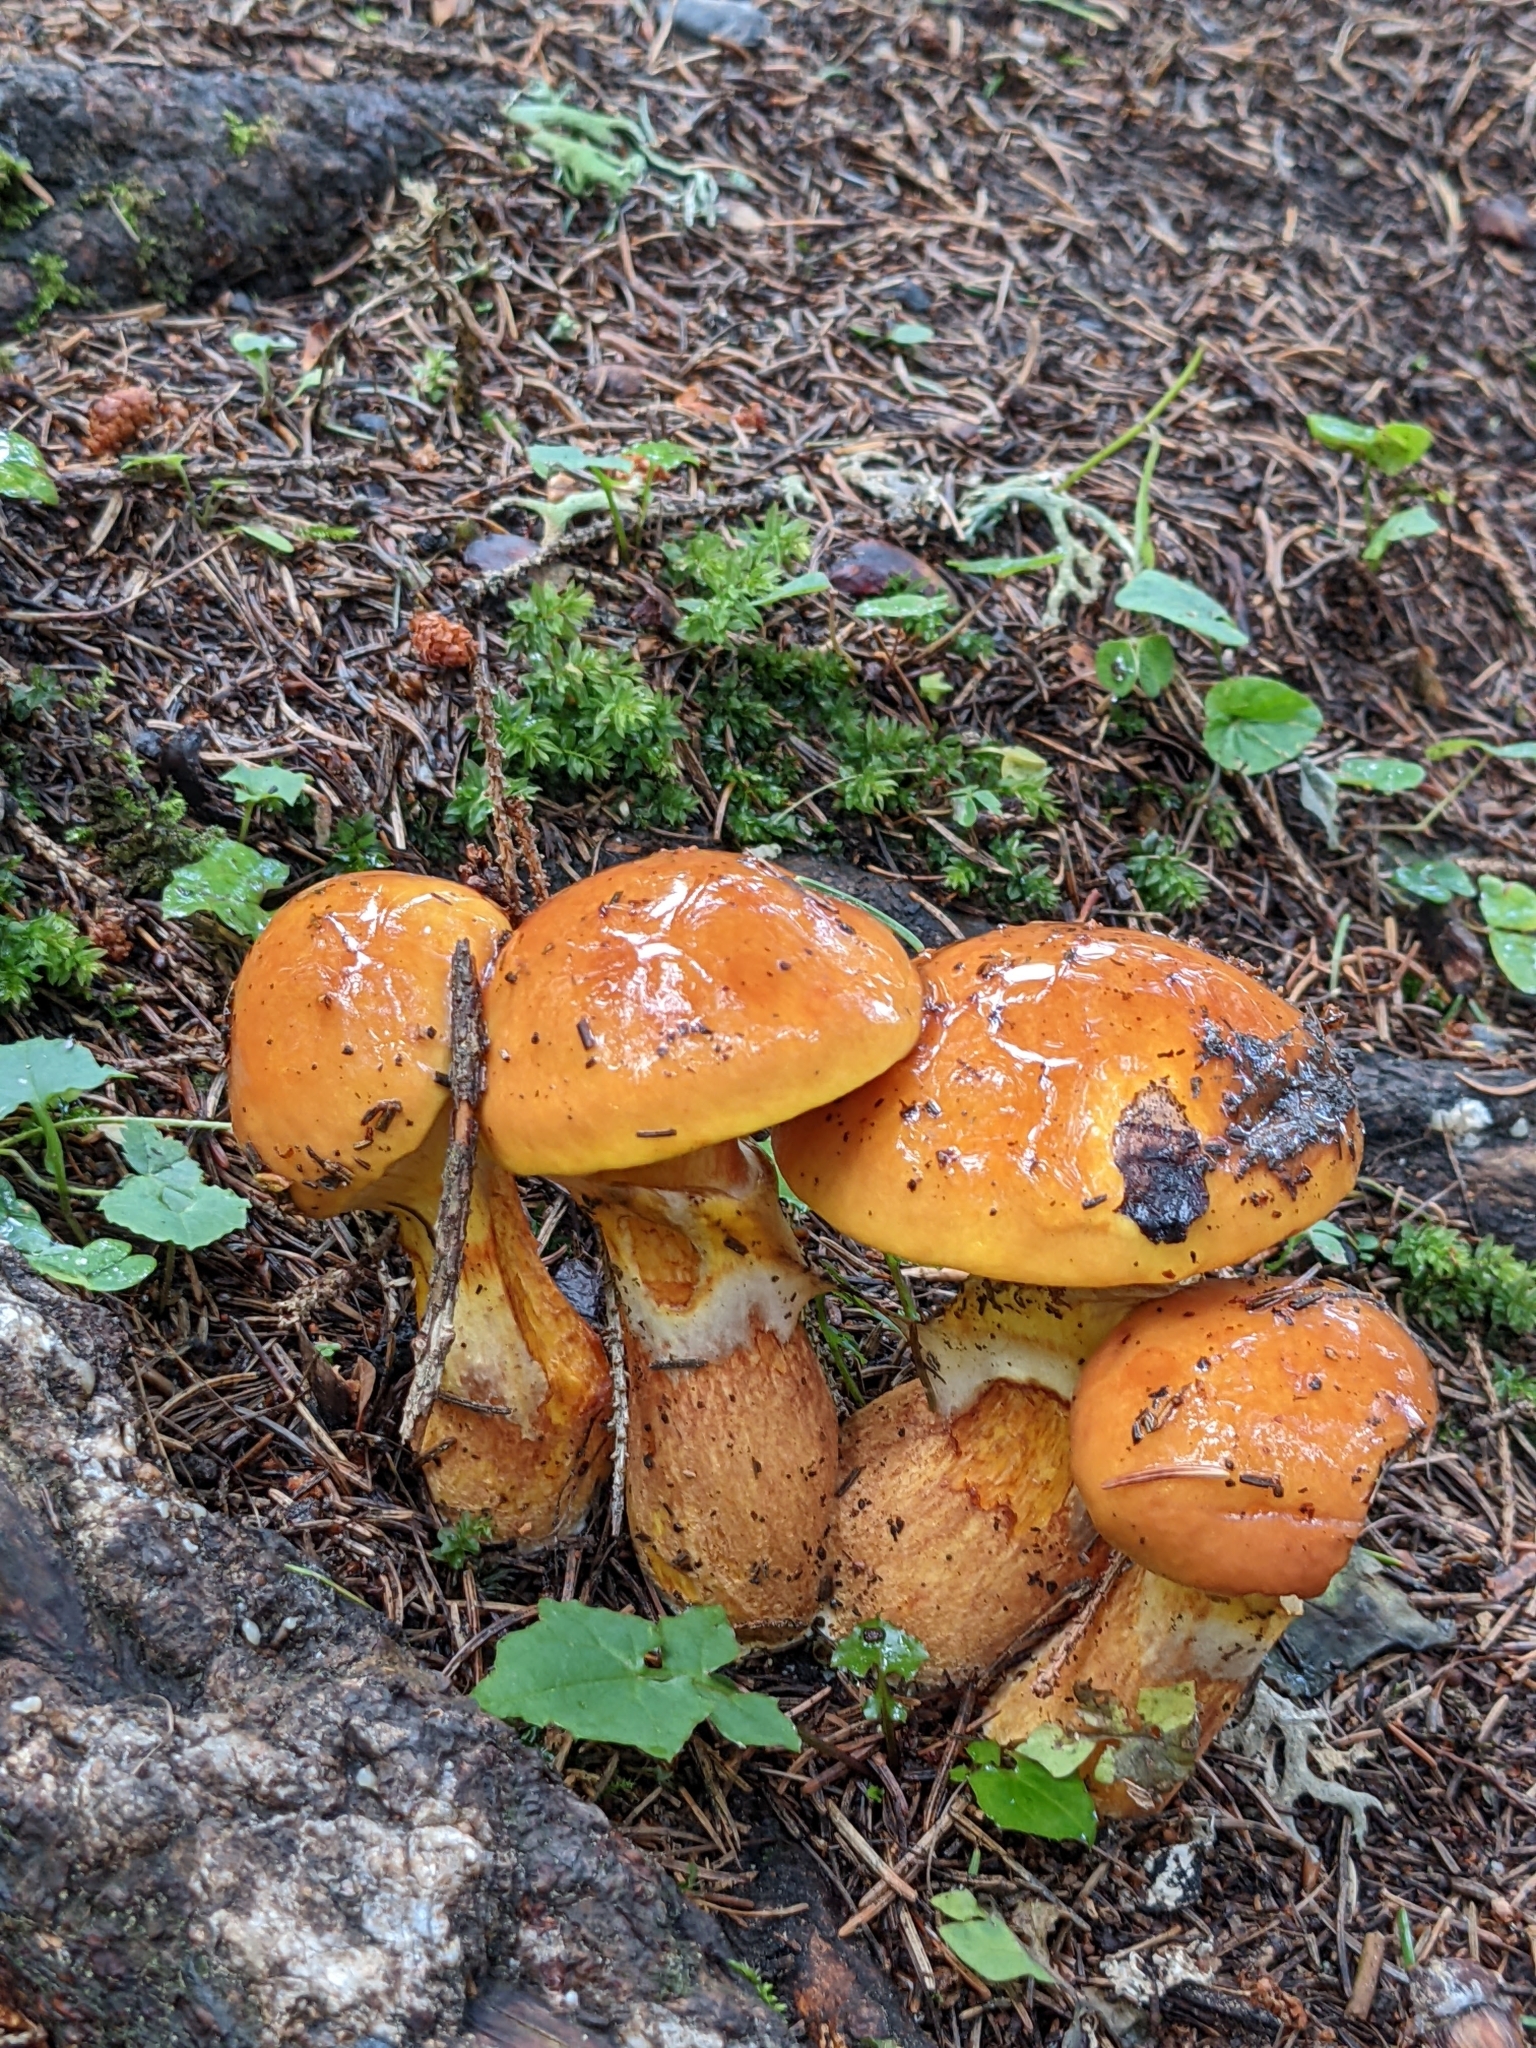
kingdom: Fungi
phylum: Basidiomycota
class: Agaricomycetes
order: Boletales
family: Suillaceae
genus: Suillus
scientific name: Suillus grevillei
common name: Larch bolete
